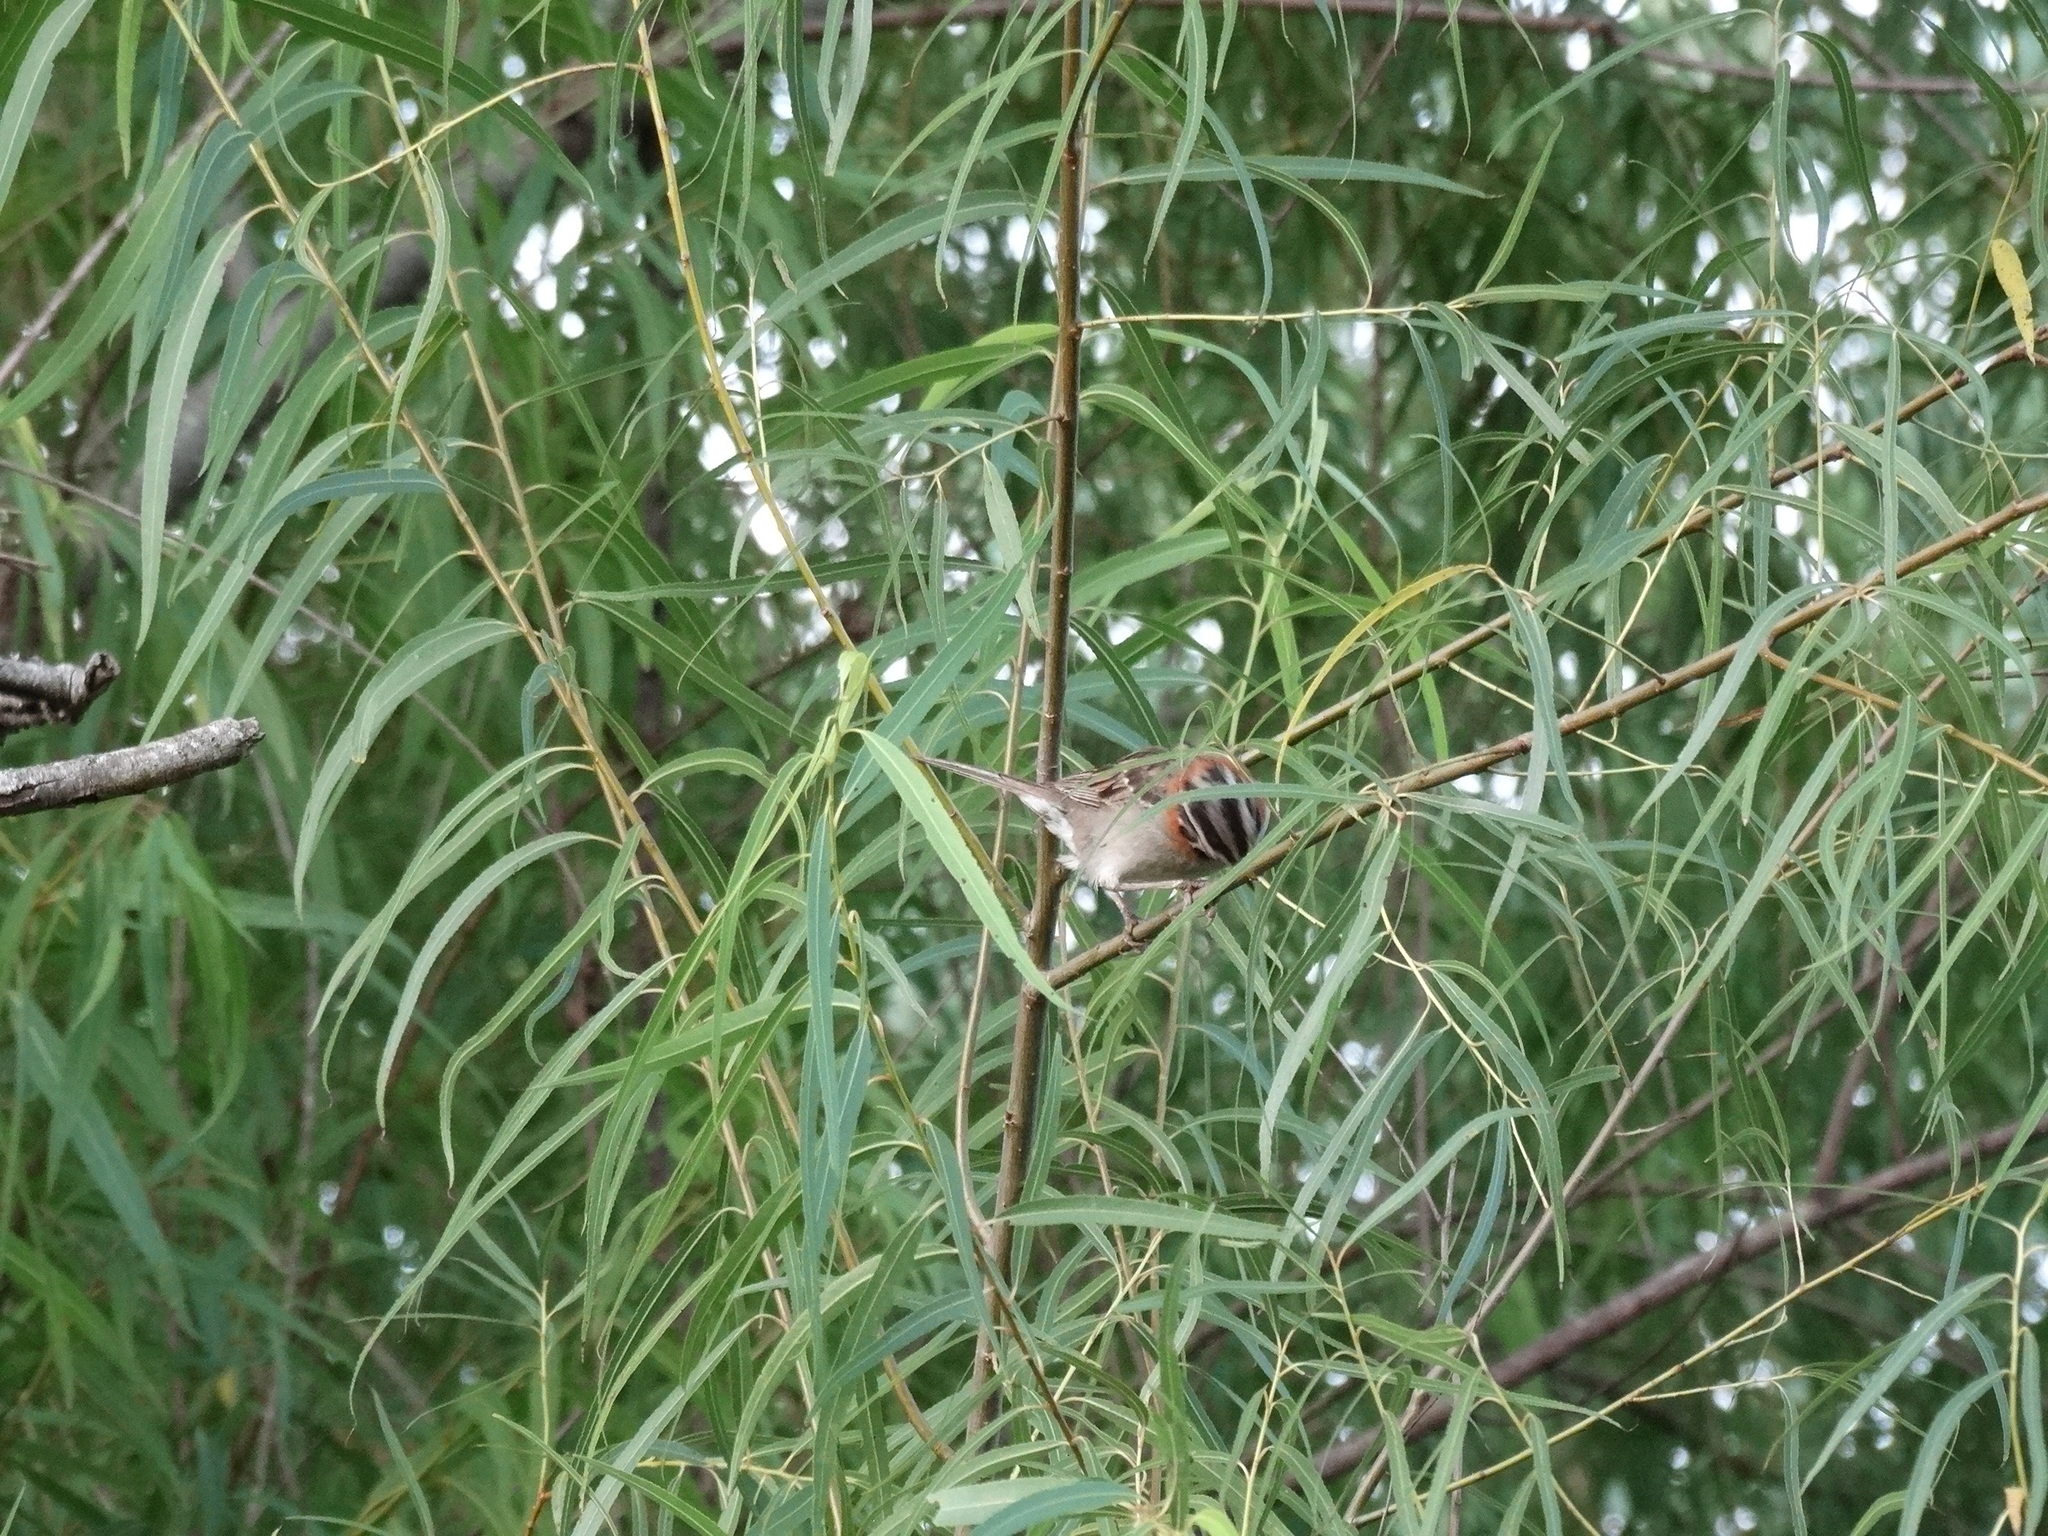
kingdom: Animalia
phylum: Chordata
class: Aves
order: Passeriformes
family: Passerellidae
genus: Zonotrichia
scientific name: Zonotrichia capensis
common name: Rufous-collared sparrow
